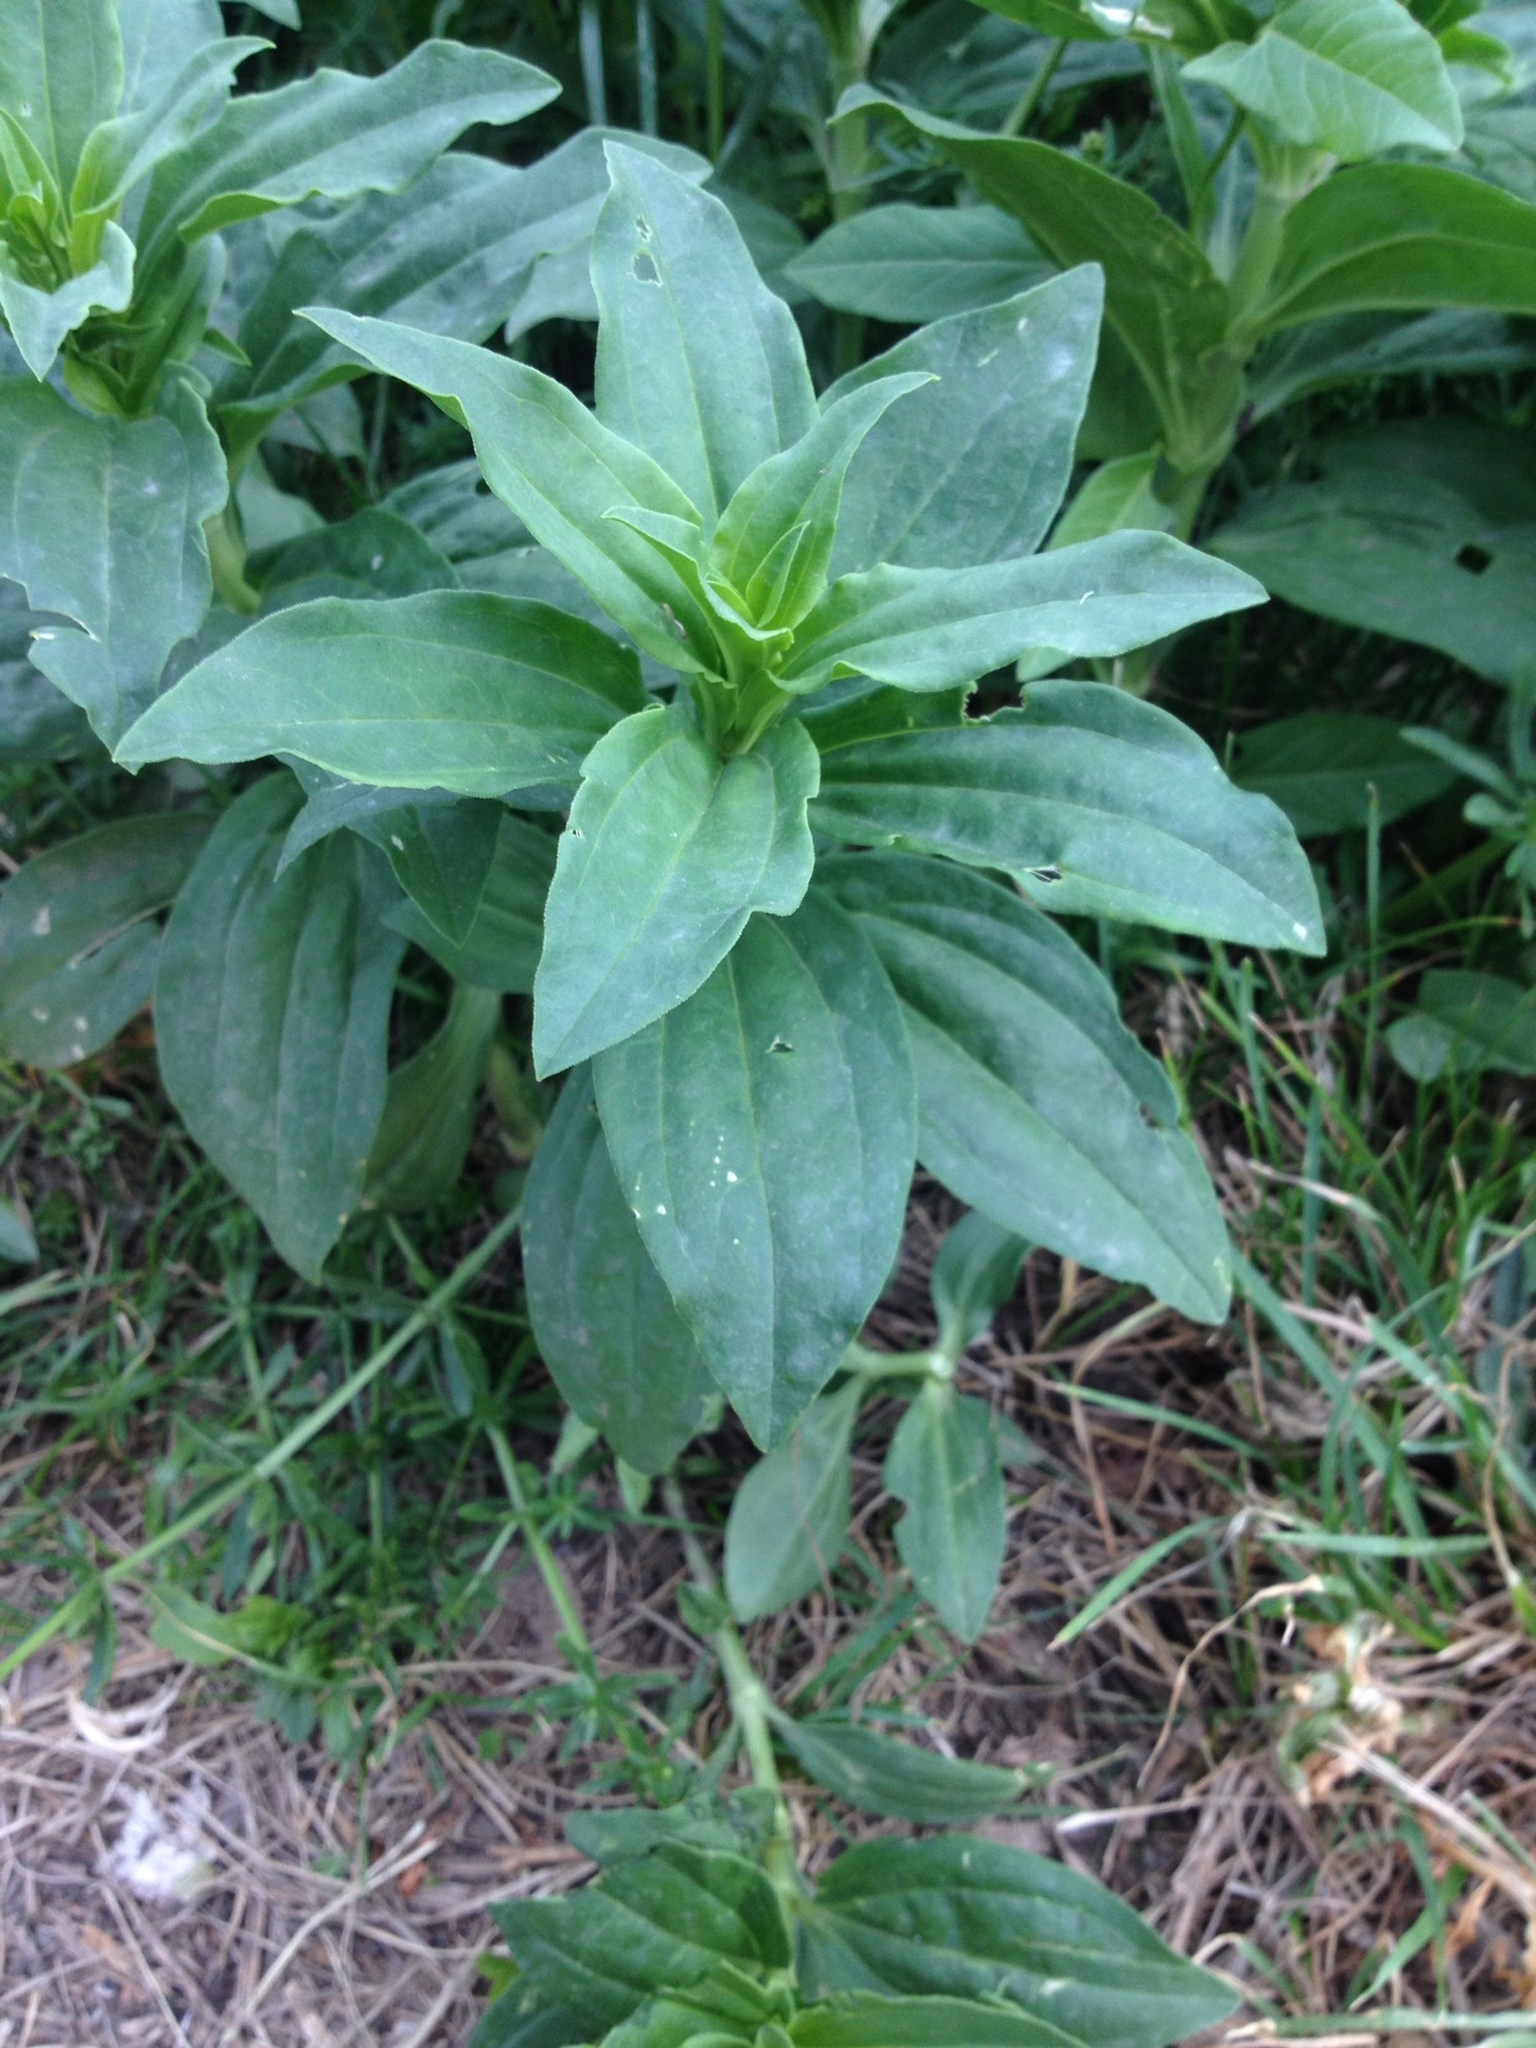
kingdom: Plantae
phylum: Tracheophyta
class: Magnoliopsida
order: Caryophyllales
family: Caryophyllaceae
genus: Saponaria
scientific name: Saponaria officinalis
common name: Soapwort
